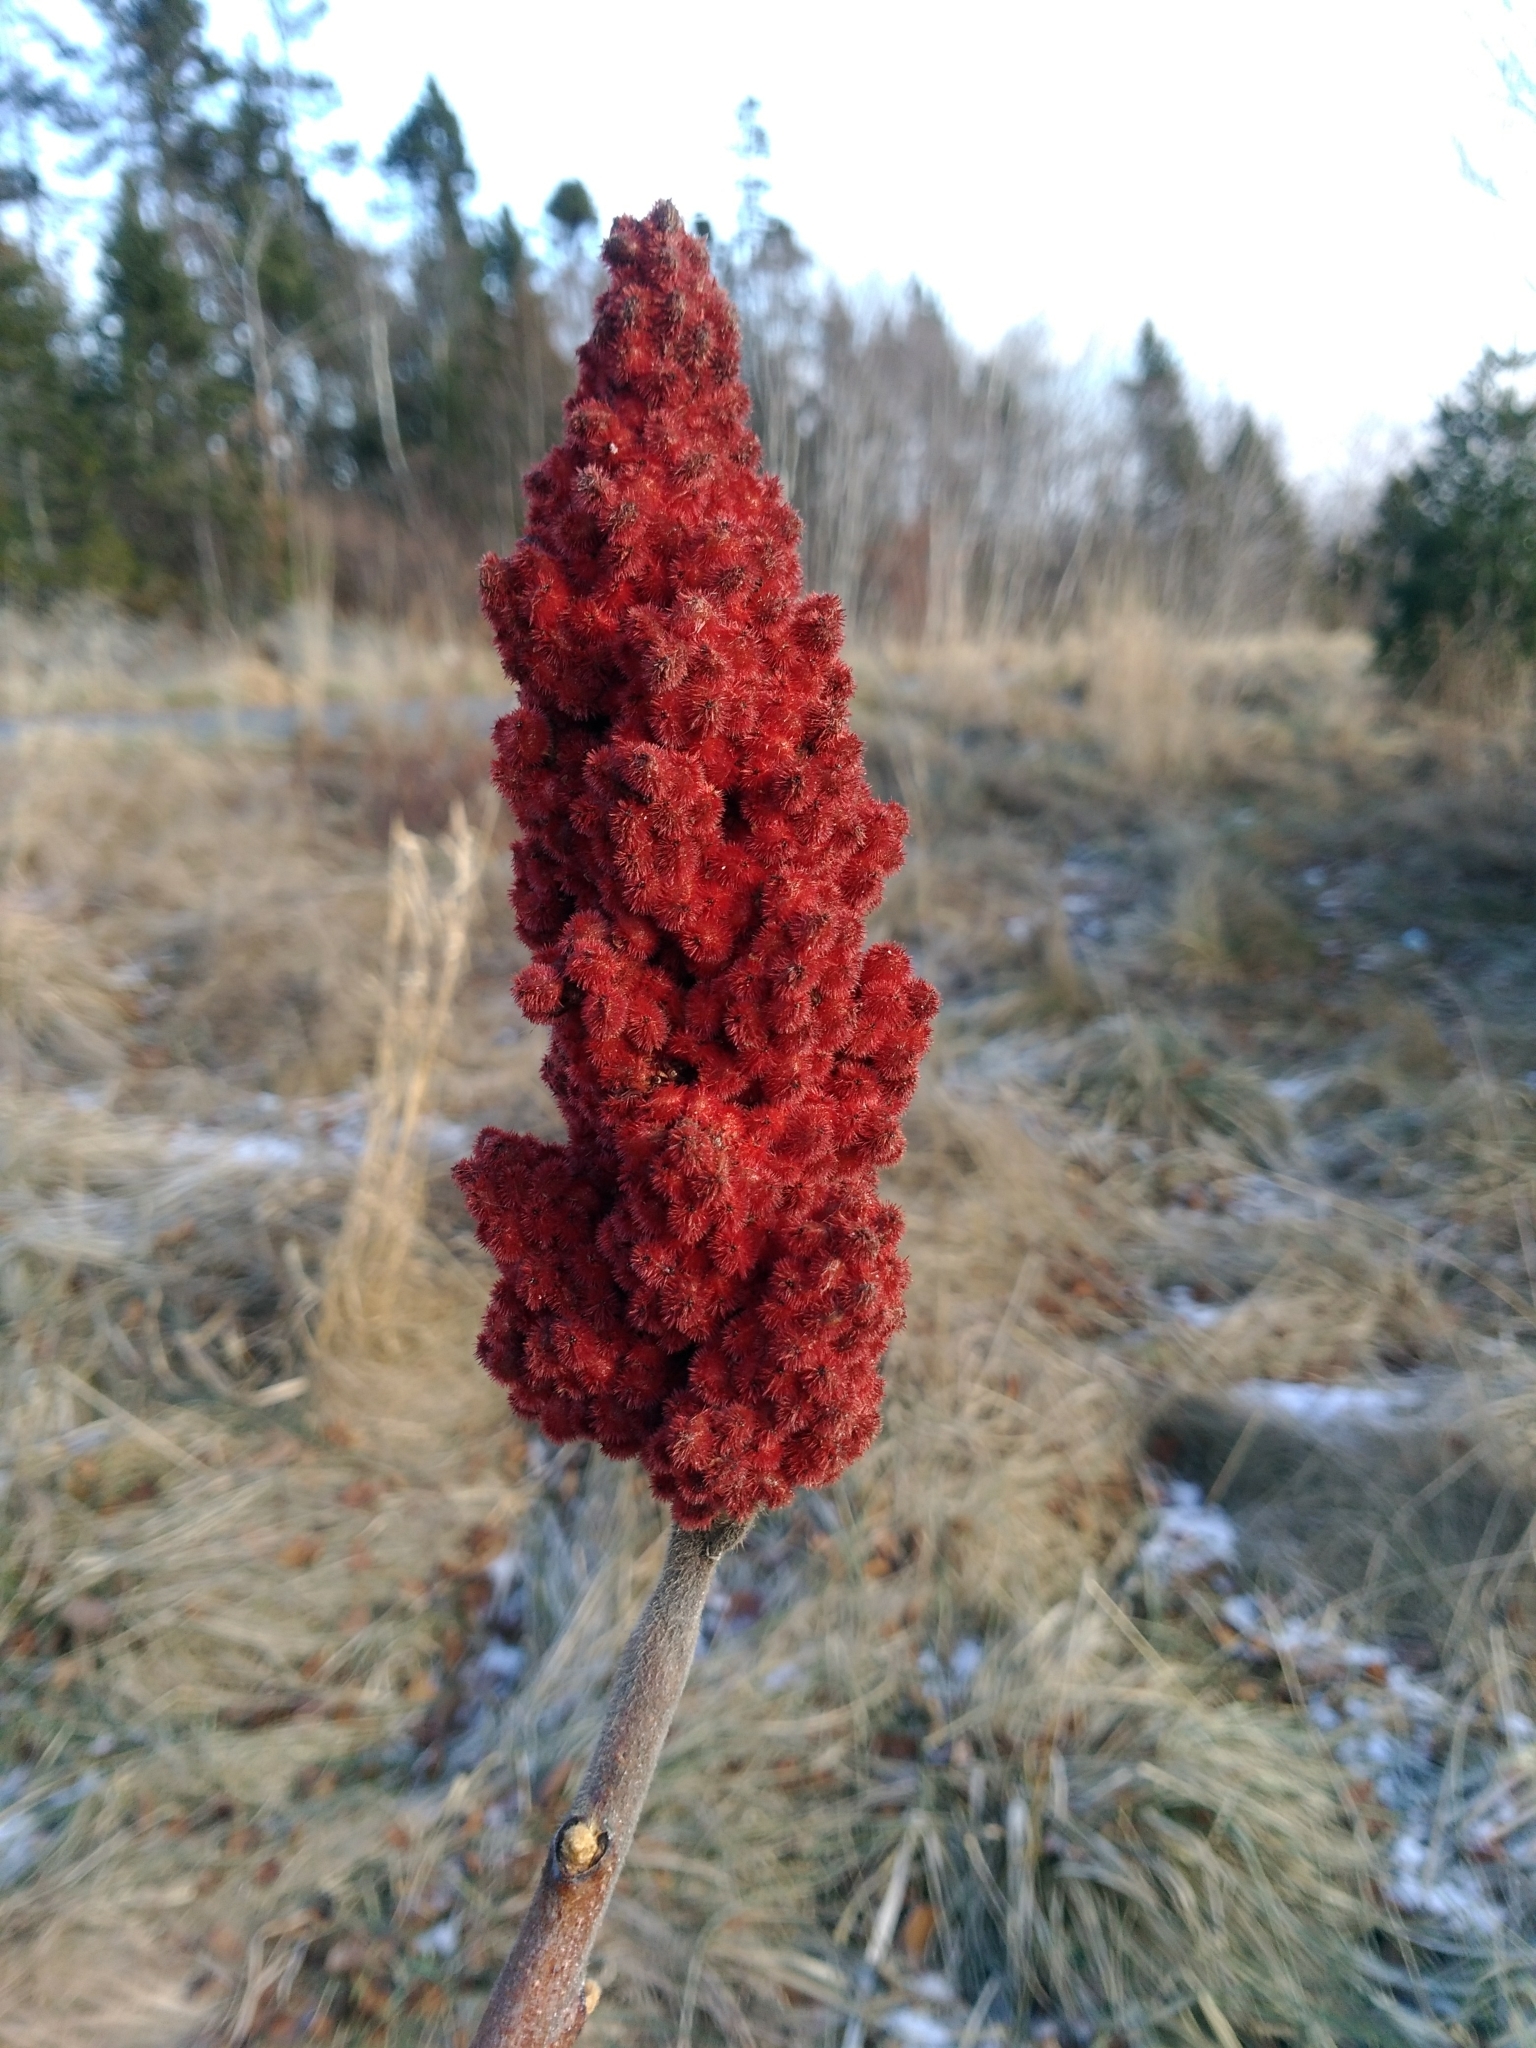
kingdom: Plantae
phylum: Tracheophyta
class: Magnoliopsida
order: Sapindales
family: Anacardiaceae
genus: Rhus
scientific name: Rhus typhina
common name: Staghorn sumac
